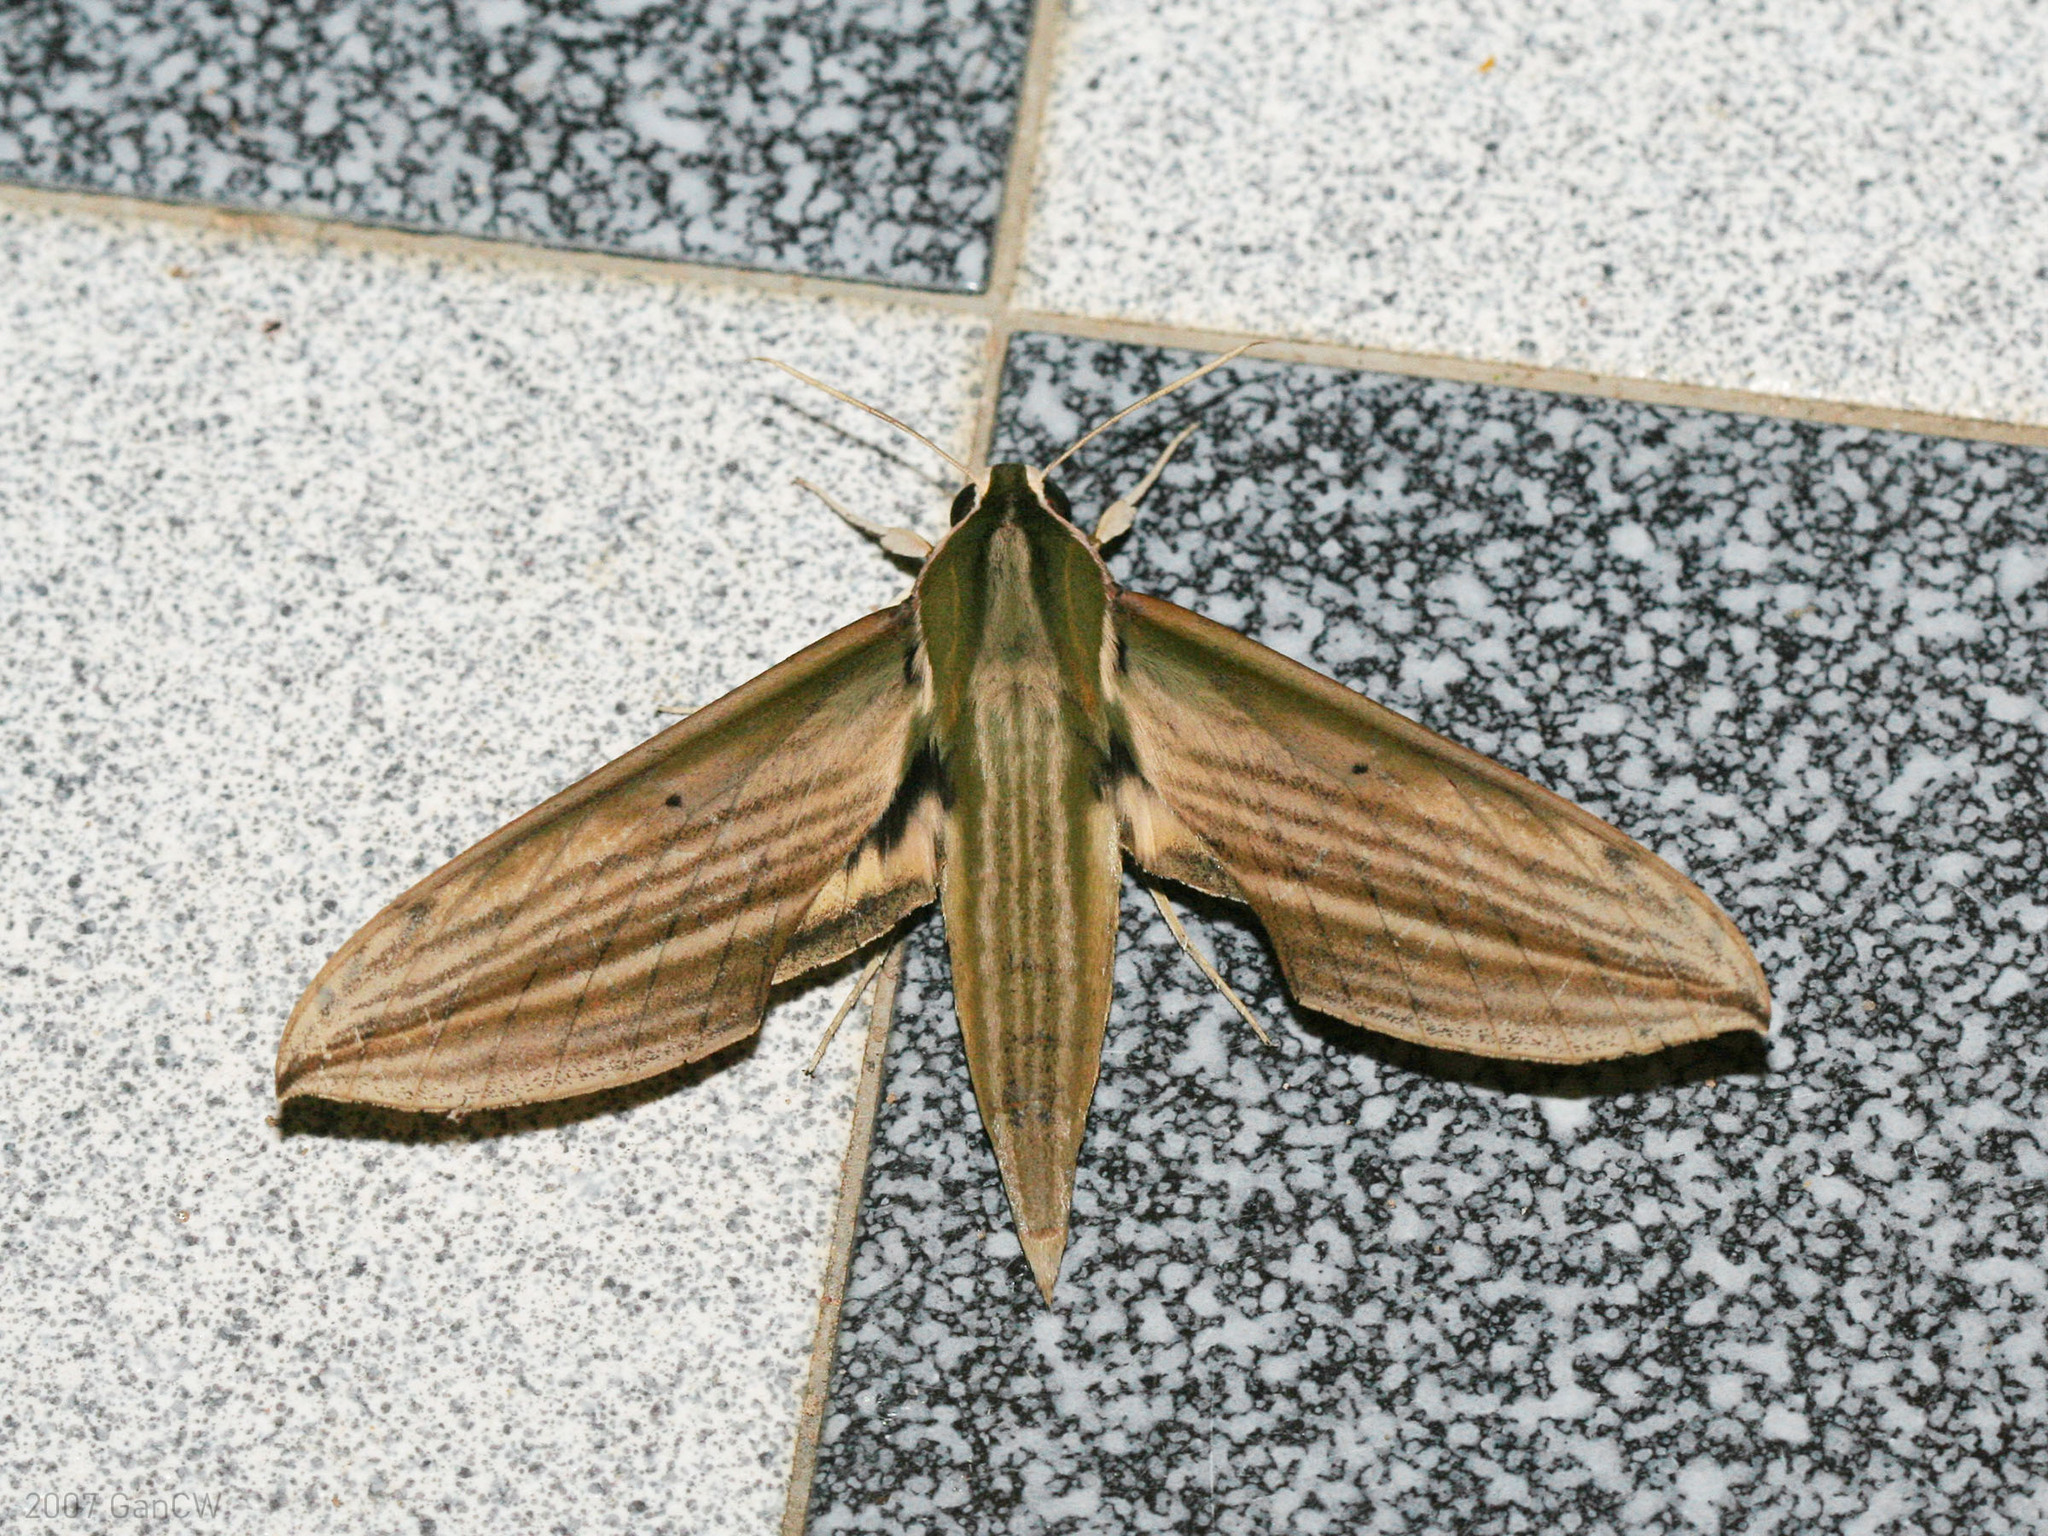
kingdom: Animalia
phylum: Arthropoda
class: Insecta
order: Lepidoptera
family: Sphingidae
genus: Cechetra
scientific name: Cechetra lineosa
